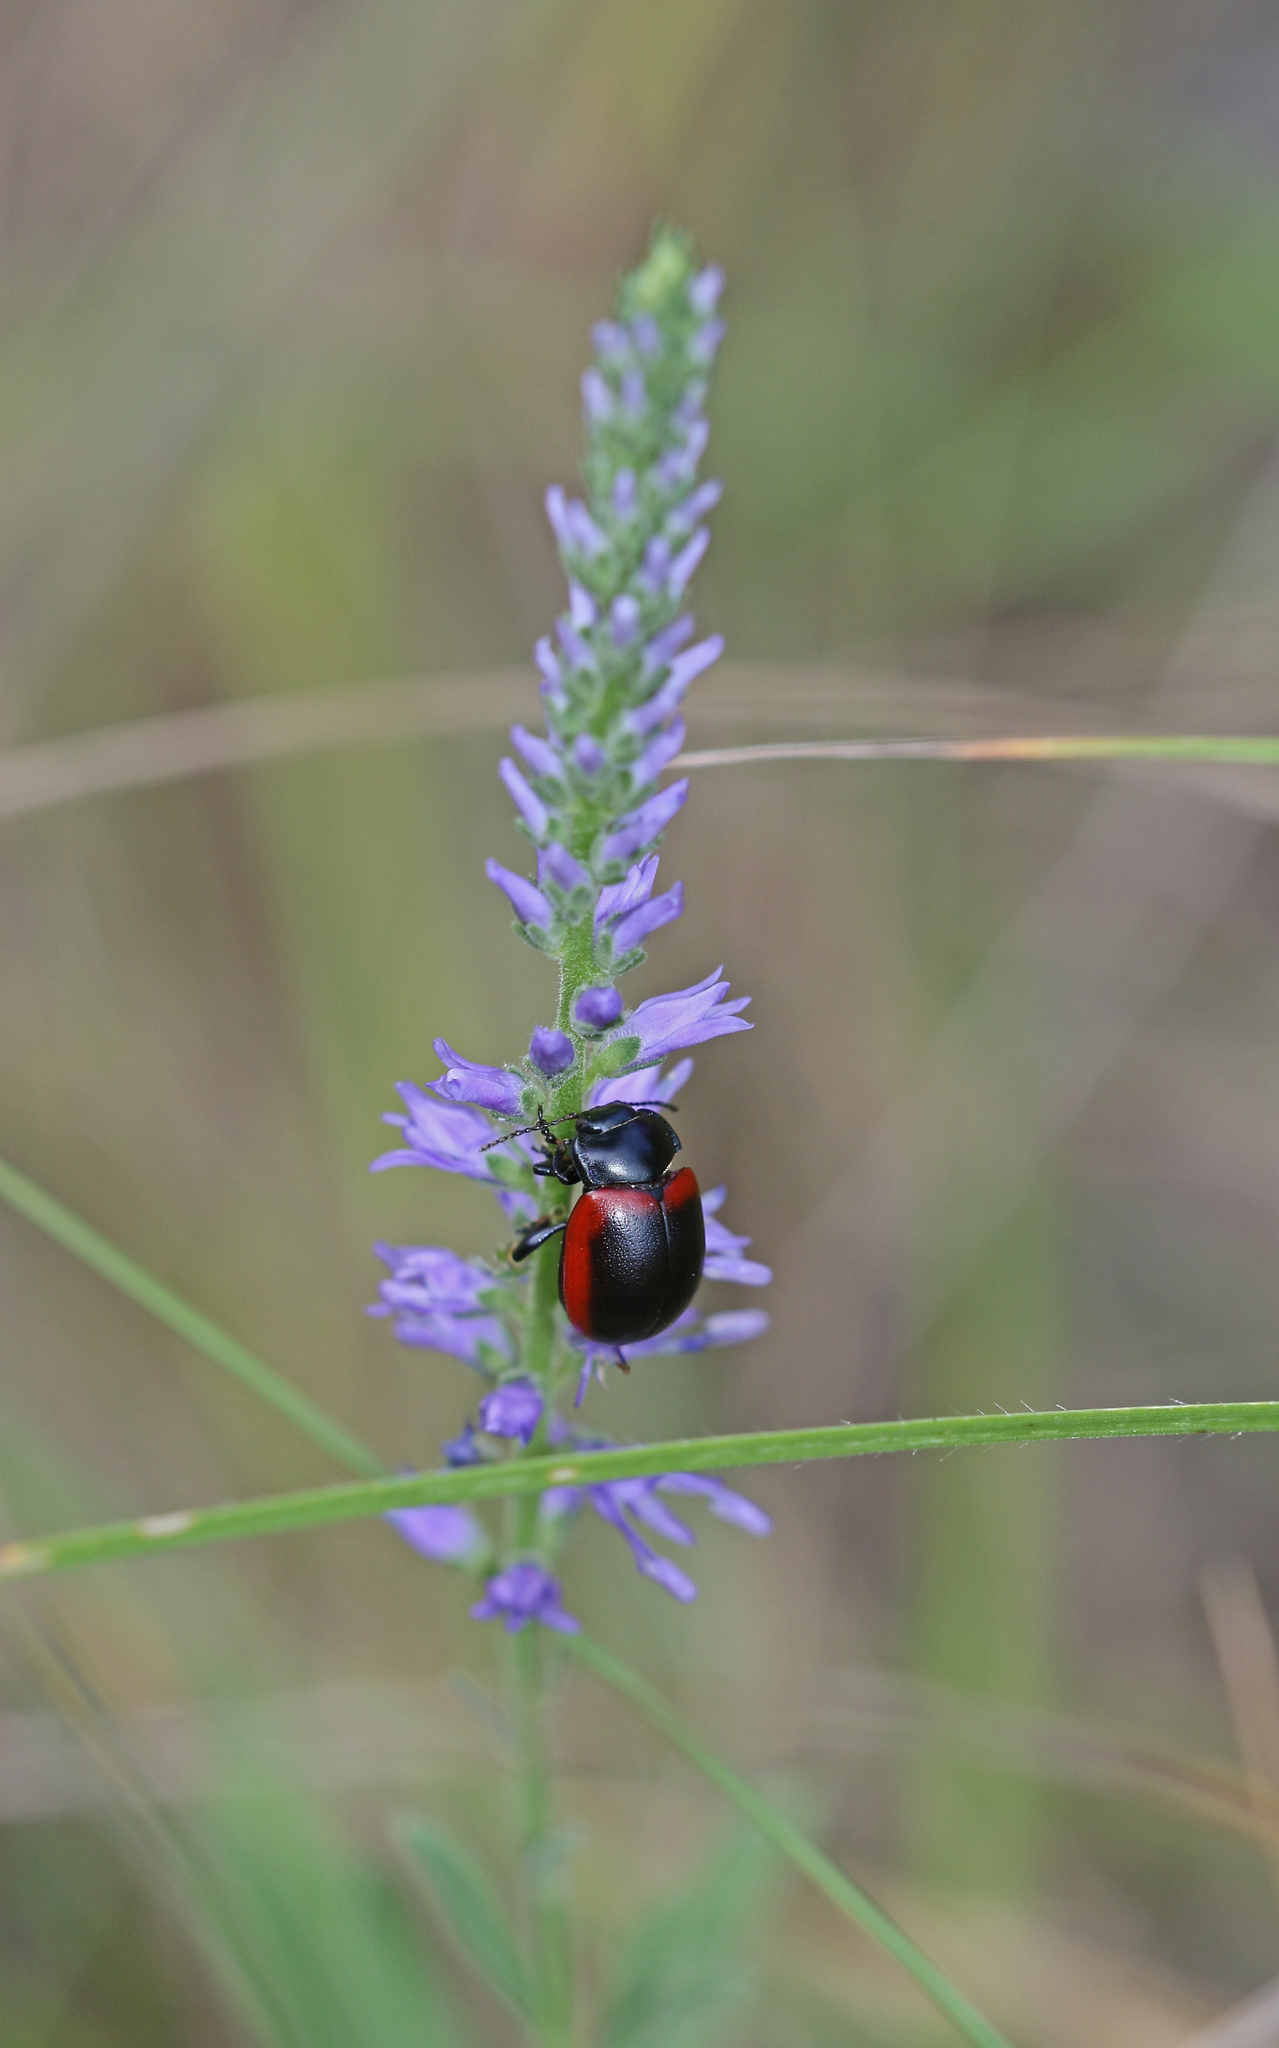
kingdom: Animalia
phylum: Arthropoda
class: Insecta
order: Coleoptera
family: Chrysomelidae
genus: Chrysolina
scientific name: Chrysolina limbata
